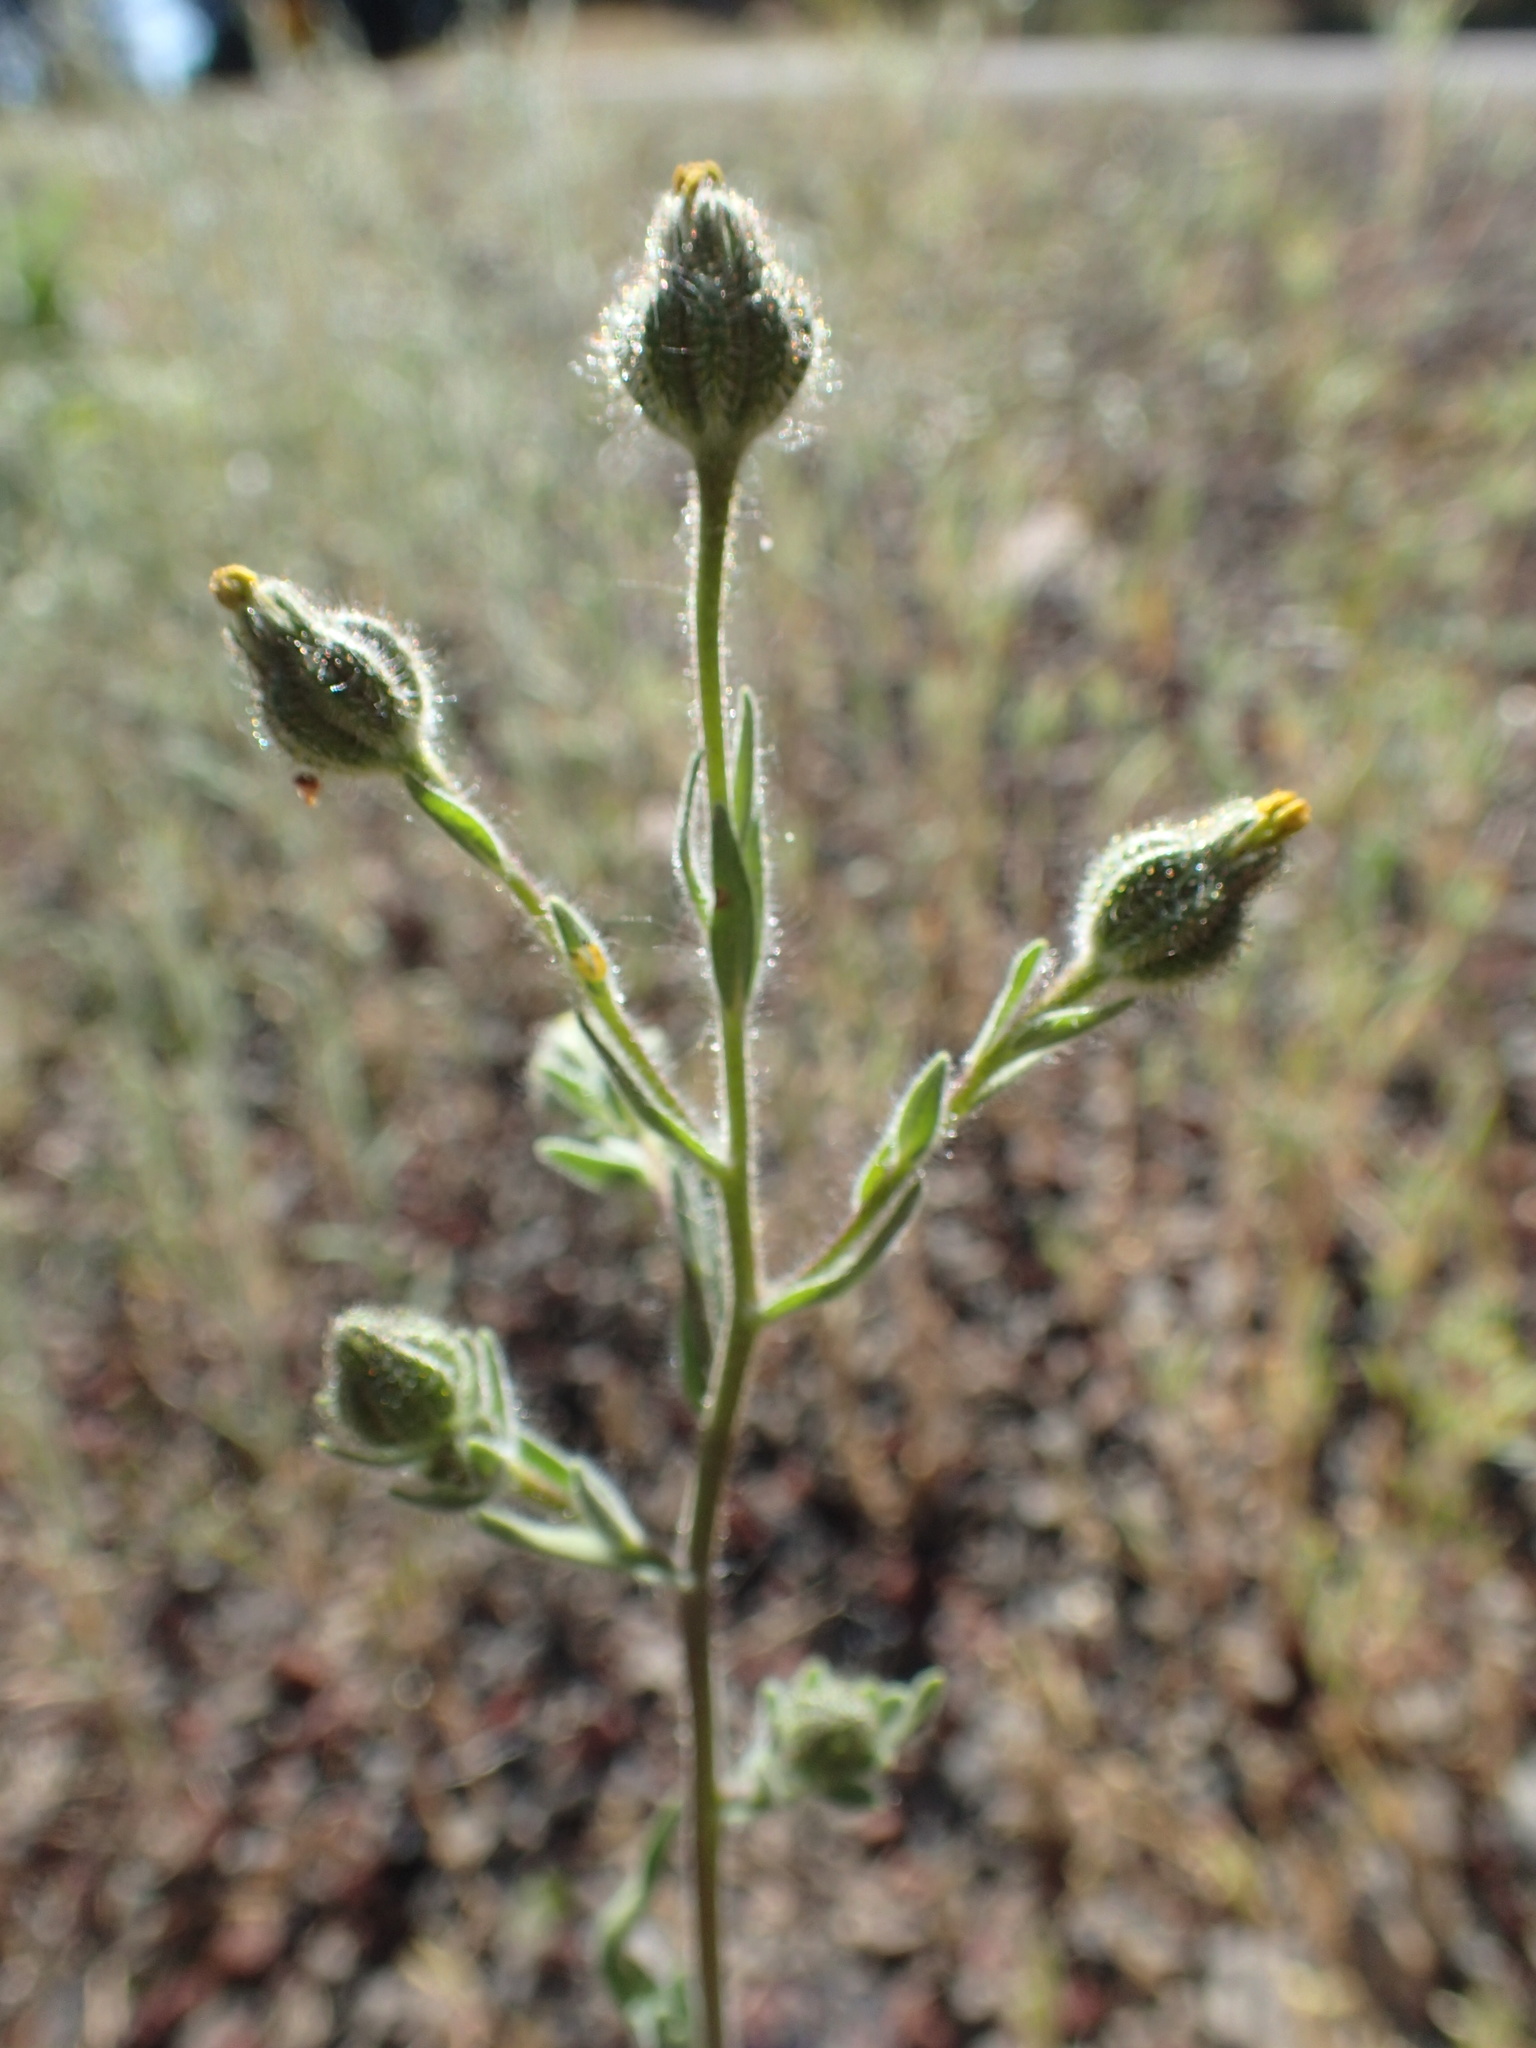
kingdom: Plantae
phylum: Tracheophyta
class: Magnoliopsida
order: Asterales
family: Asteraceae
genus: Madia
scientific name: Madia gracilis
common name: Grassy tarweed
